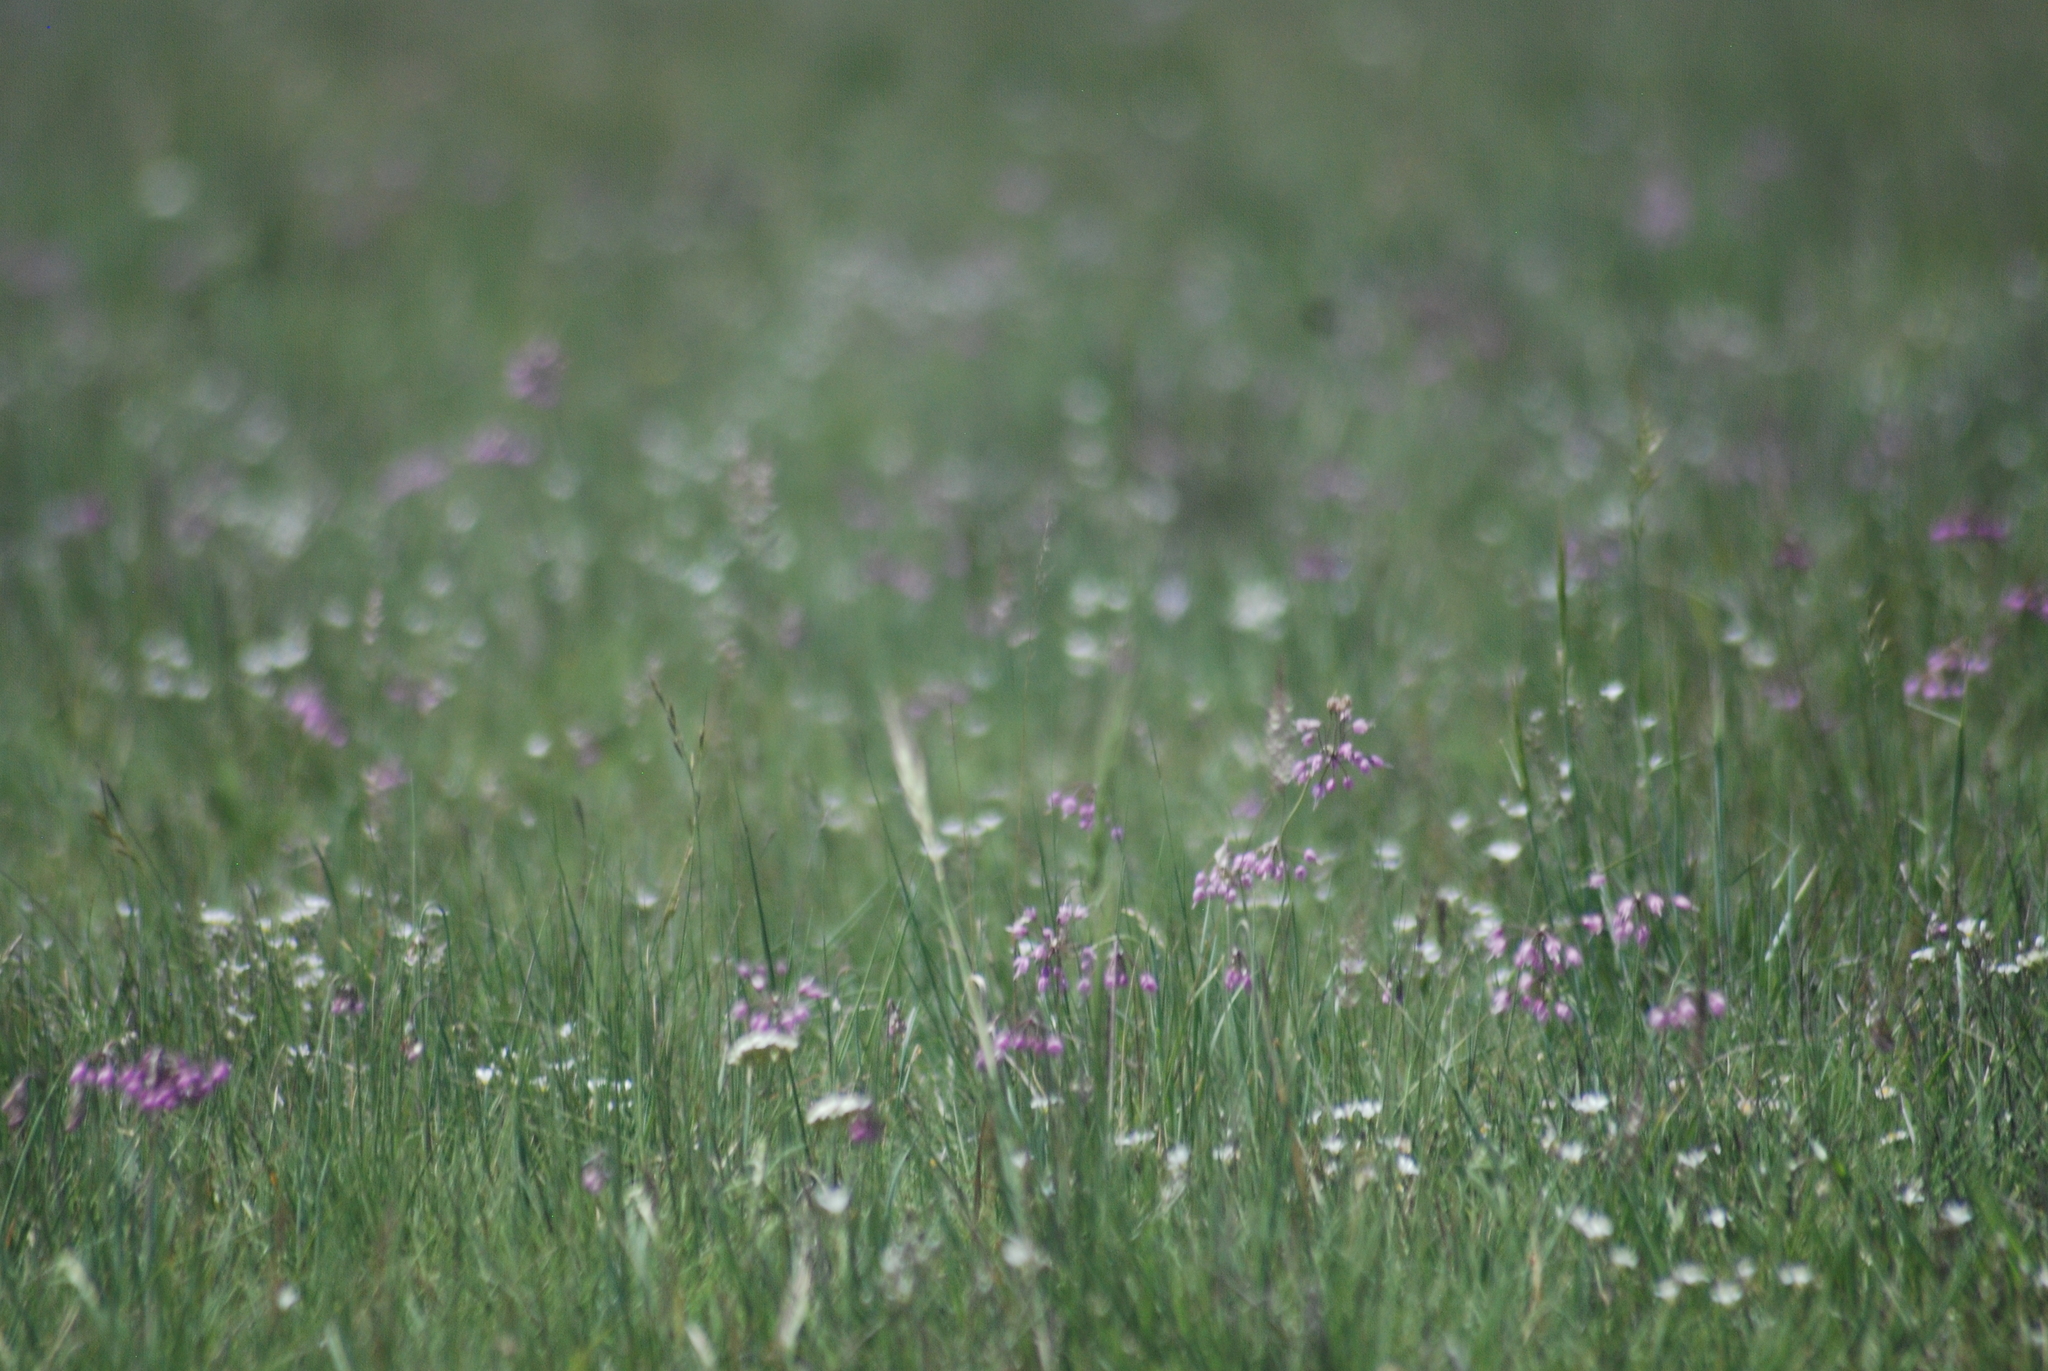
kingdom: Plantae
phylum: Tracheophyta
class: Liliopsida
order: Asparagales
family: Amaryllidaceae
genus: Allium
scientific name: Allium cernuum
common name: Nodding onion
